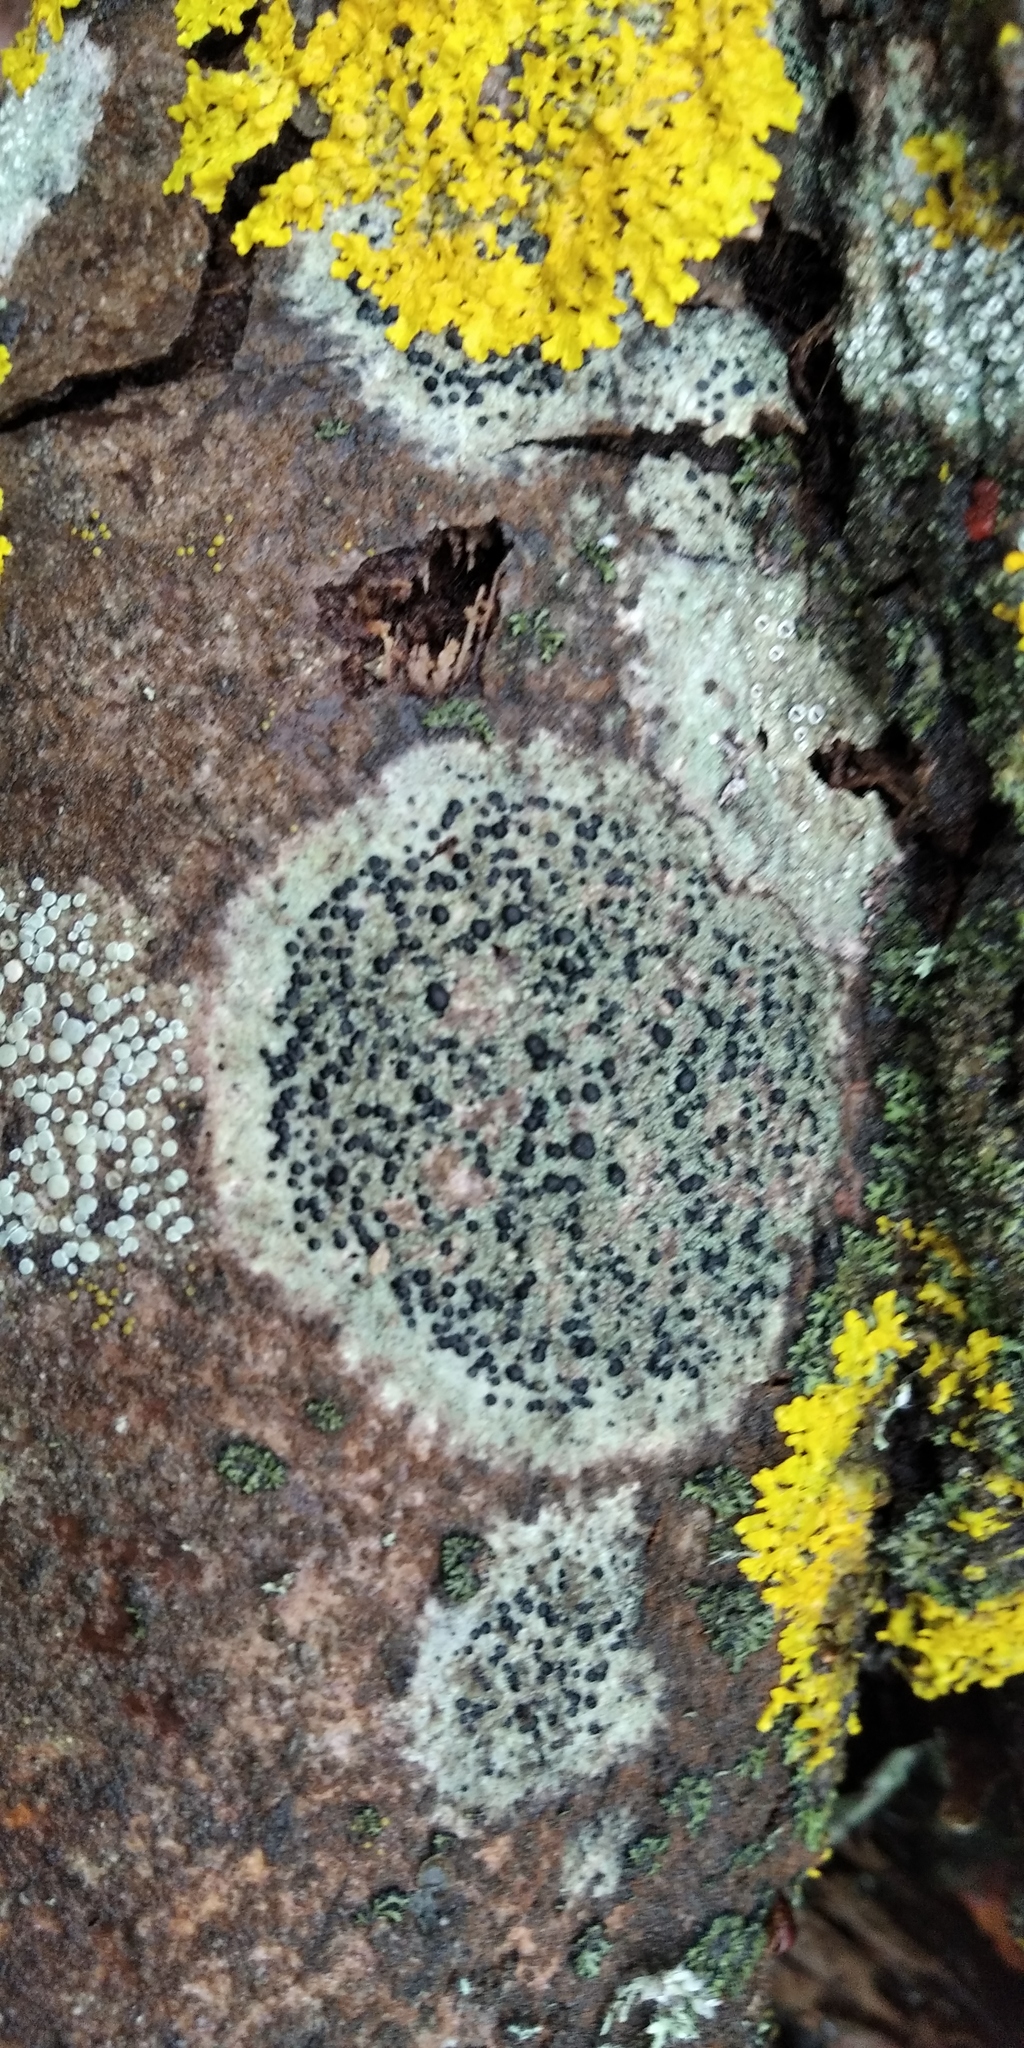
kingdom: Fungi
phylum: Ascomycota
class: Lecanoromycetes
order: Lecanorales
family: Lecanoraceae
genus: Lecidella
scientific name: Lecidella elaeochroma
